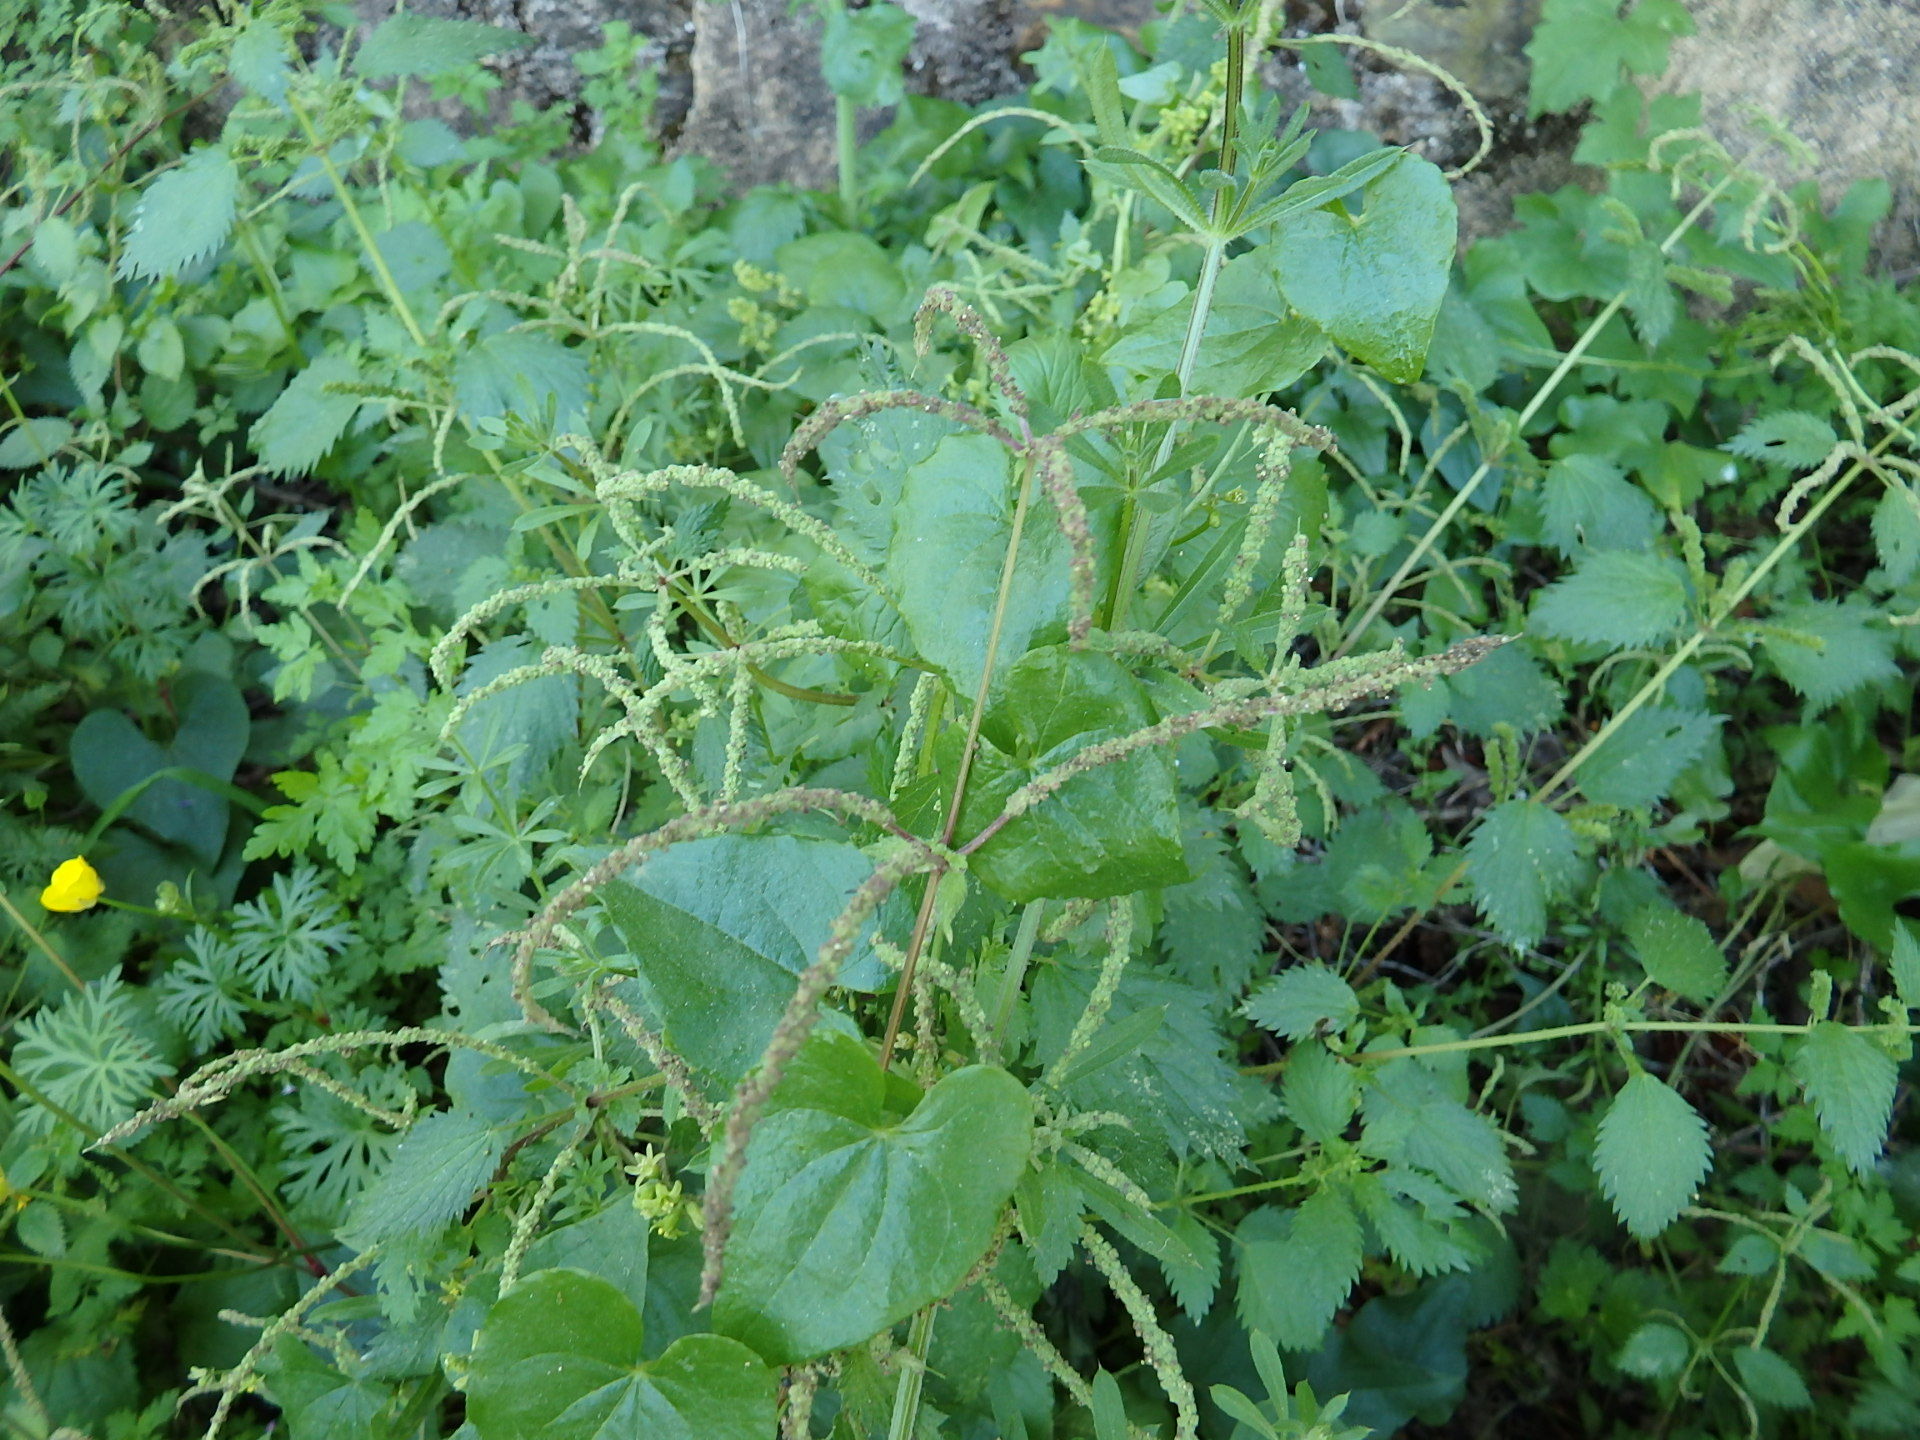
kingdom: Plantae
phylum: Tracheophyta
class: Magnoliopsida
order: Rosales
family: Urticaceae
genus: Urtica
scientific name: Urtica membranacea
